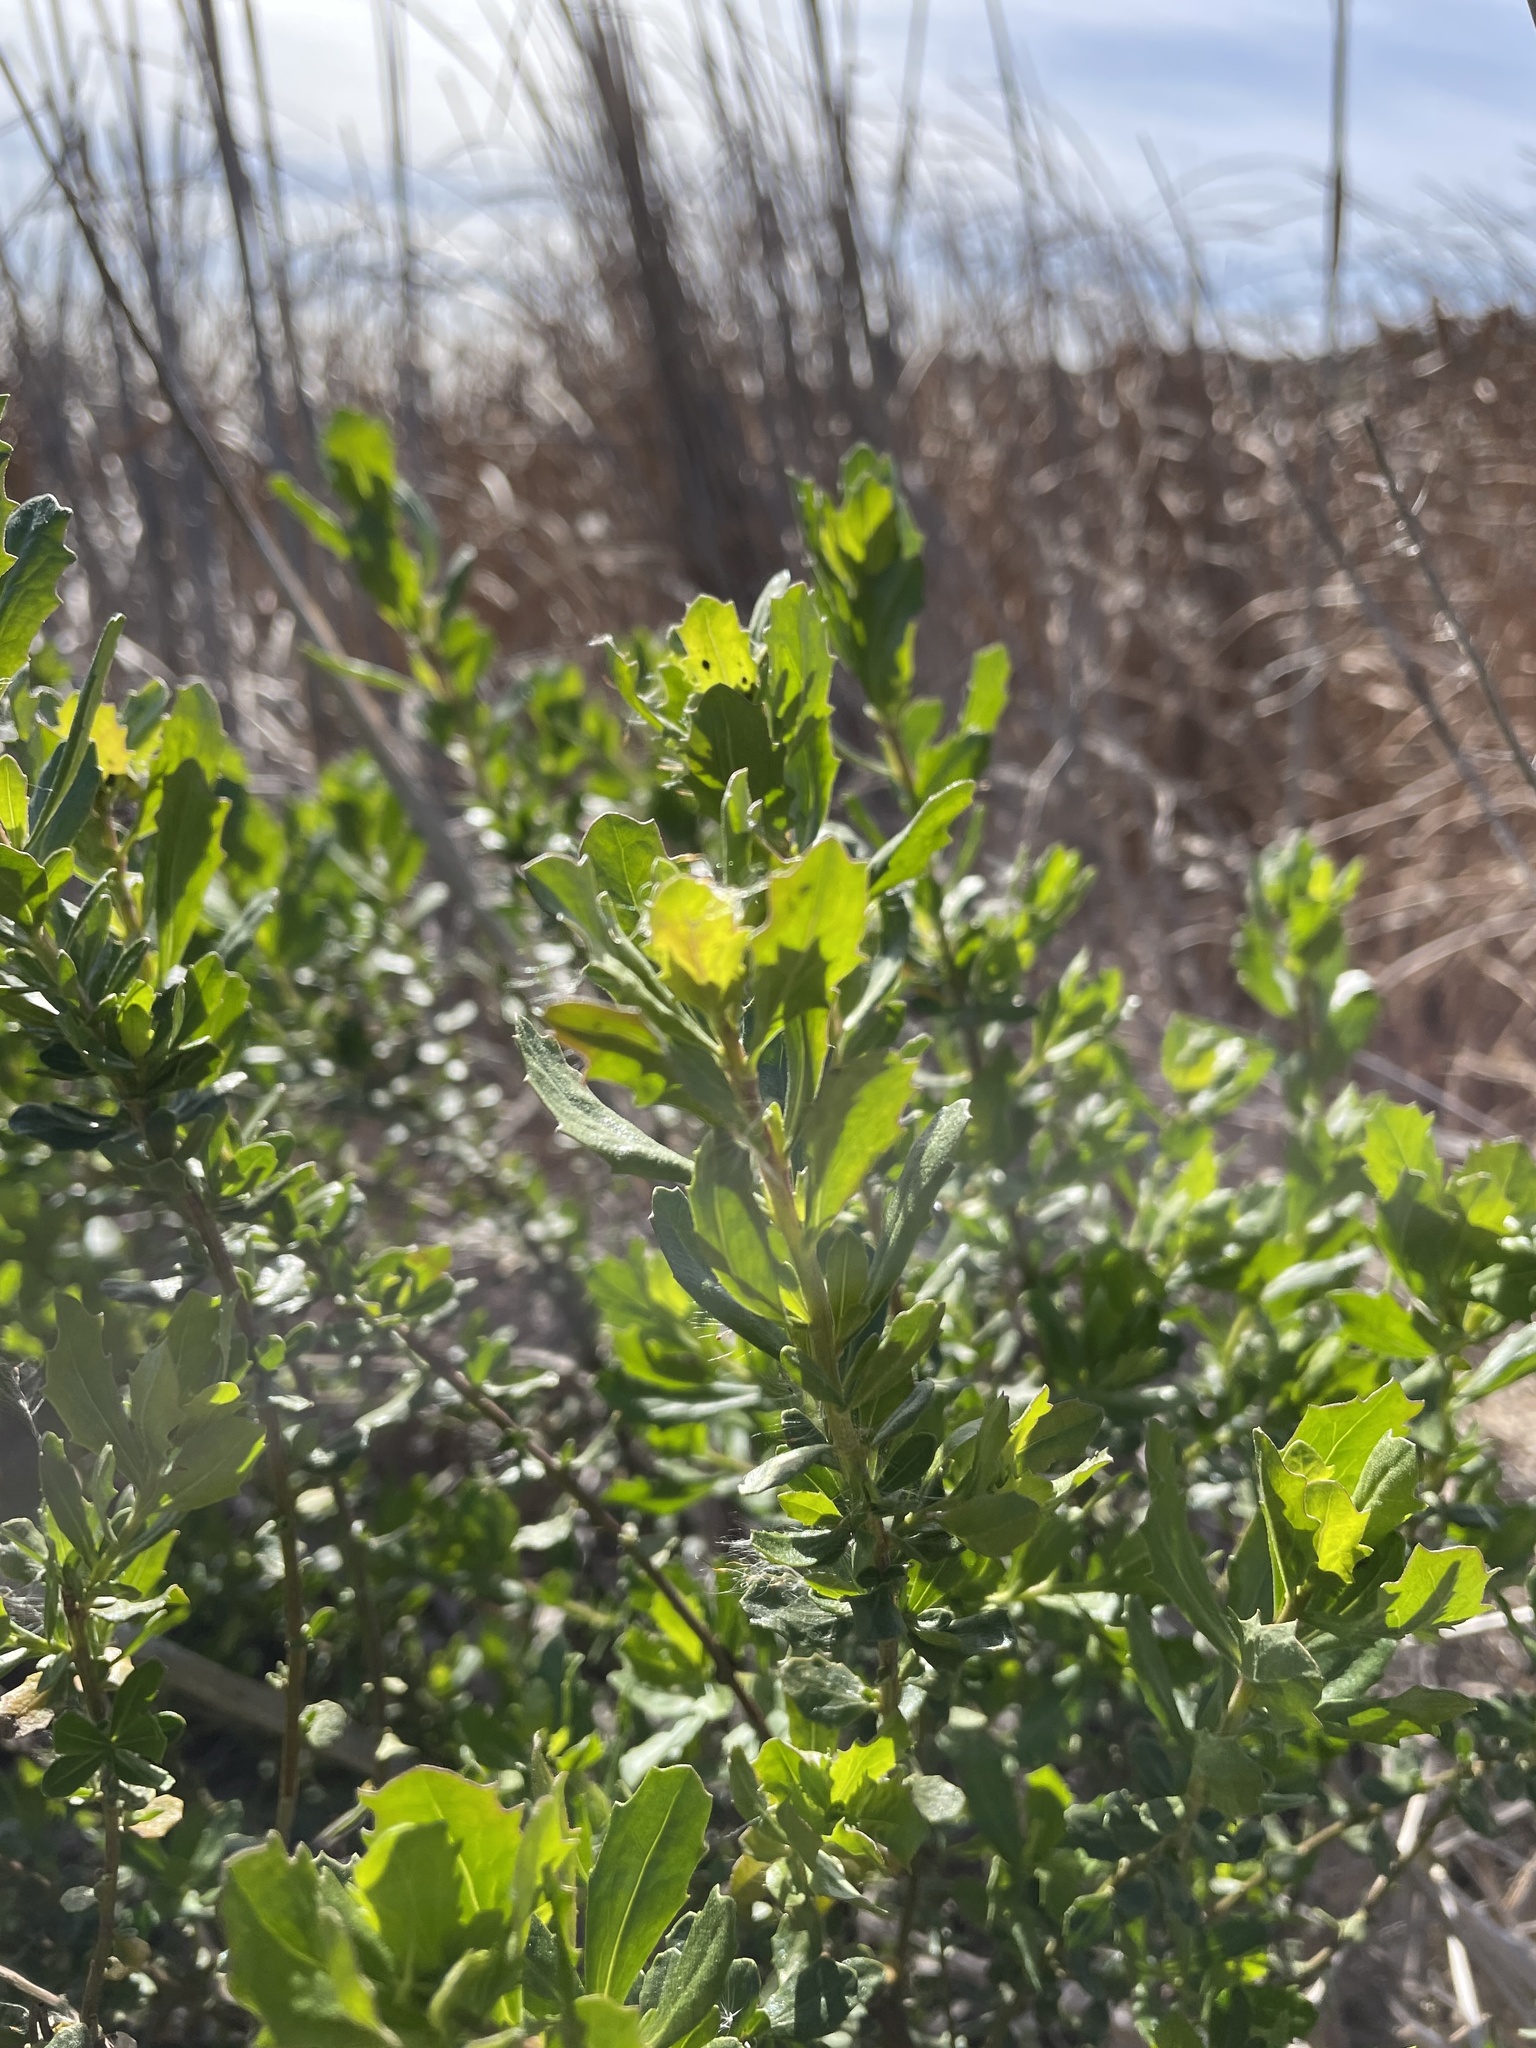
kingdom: Plantae
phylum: Tracheophyta
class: Magnoliopsida
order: Asterales
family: Asteraceae
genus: Baccharis
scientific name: Baccharis pilularis
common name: Coyotebrush
